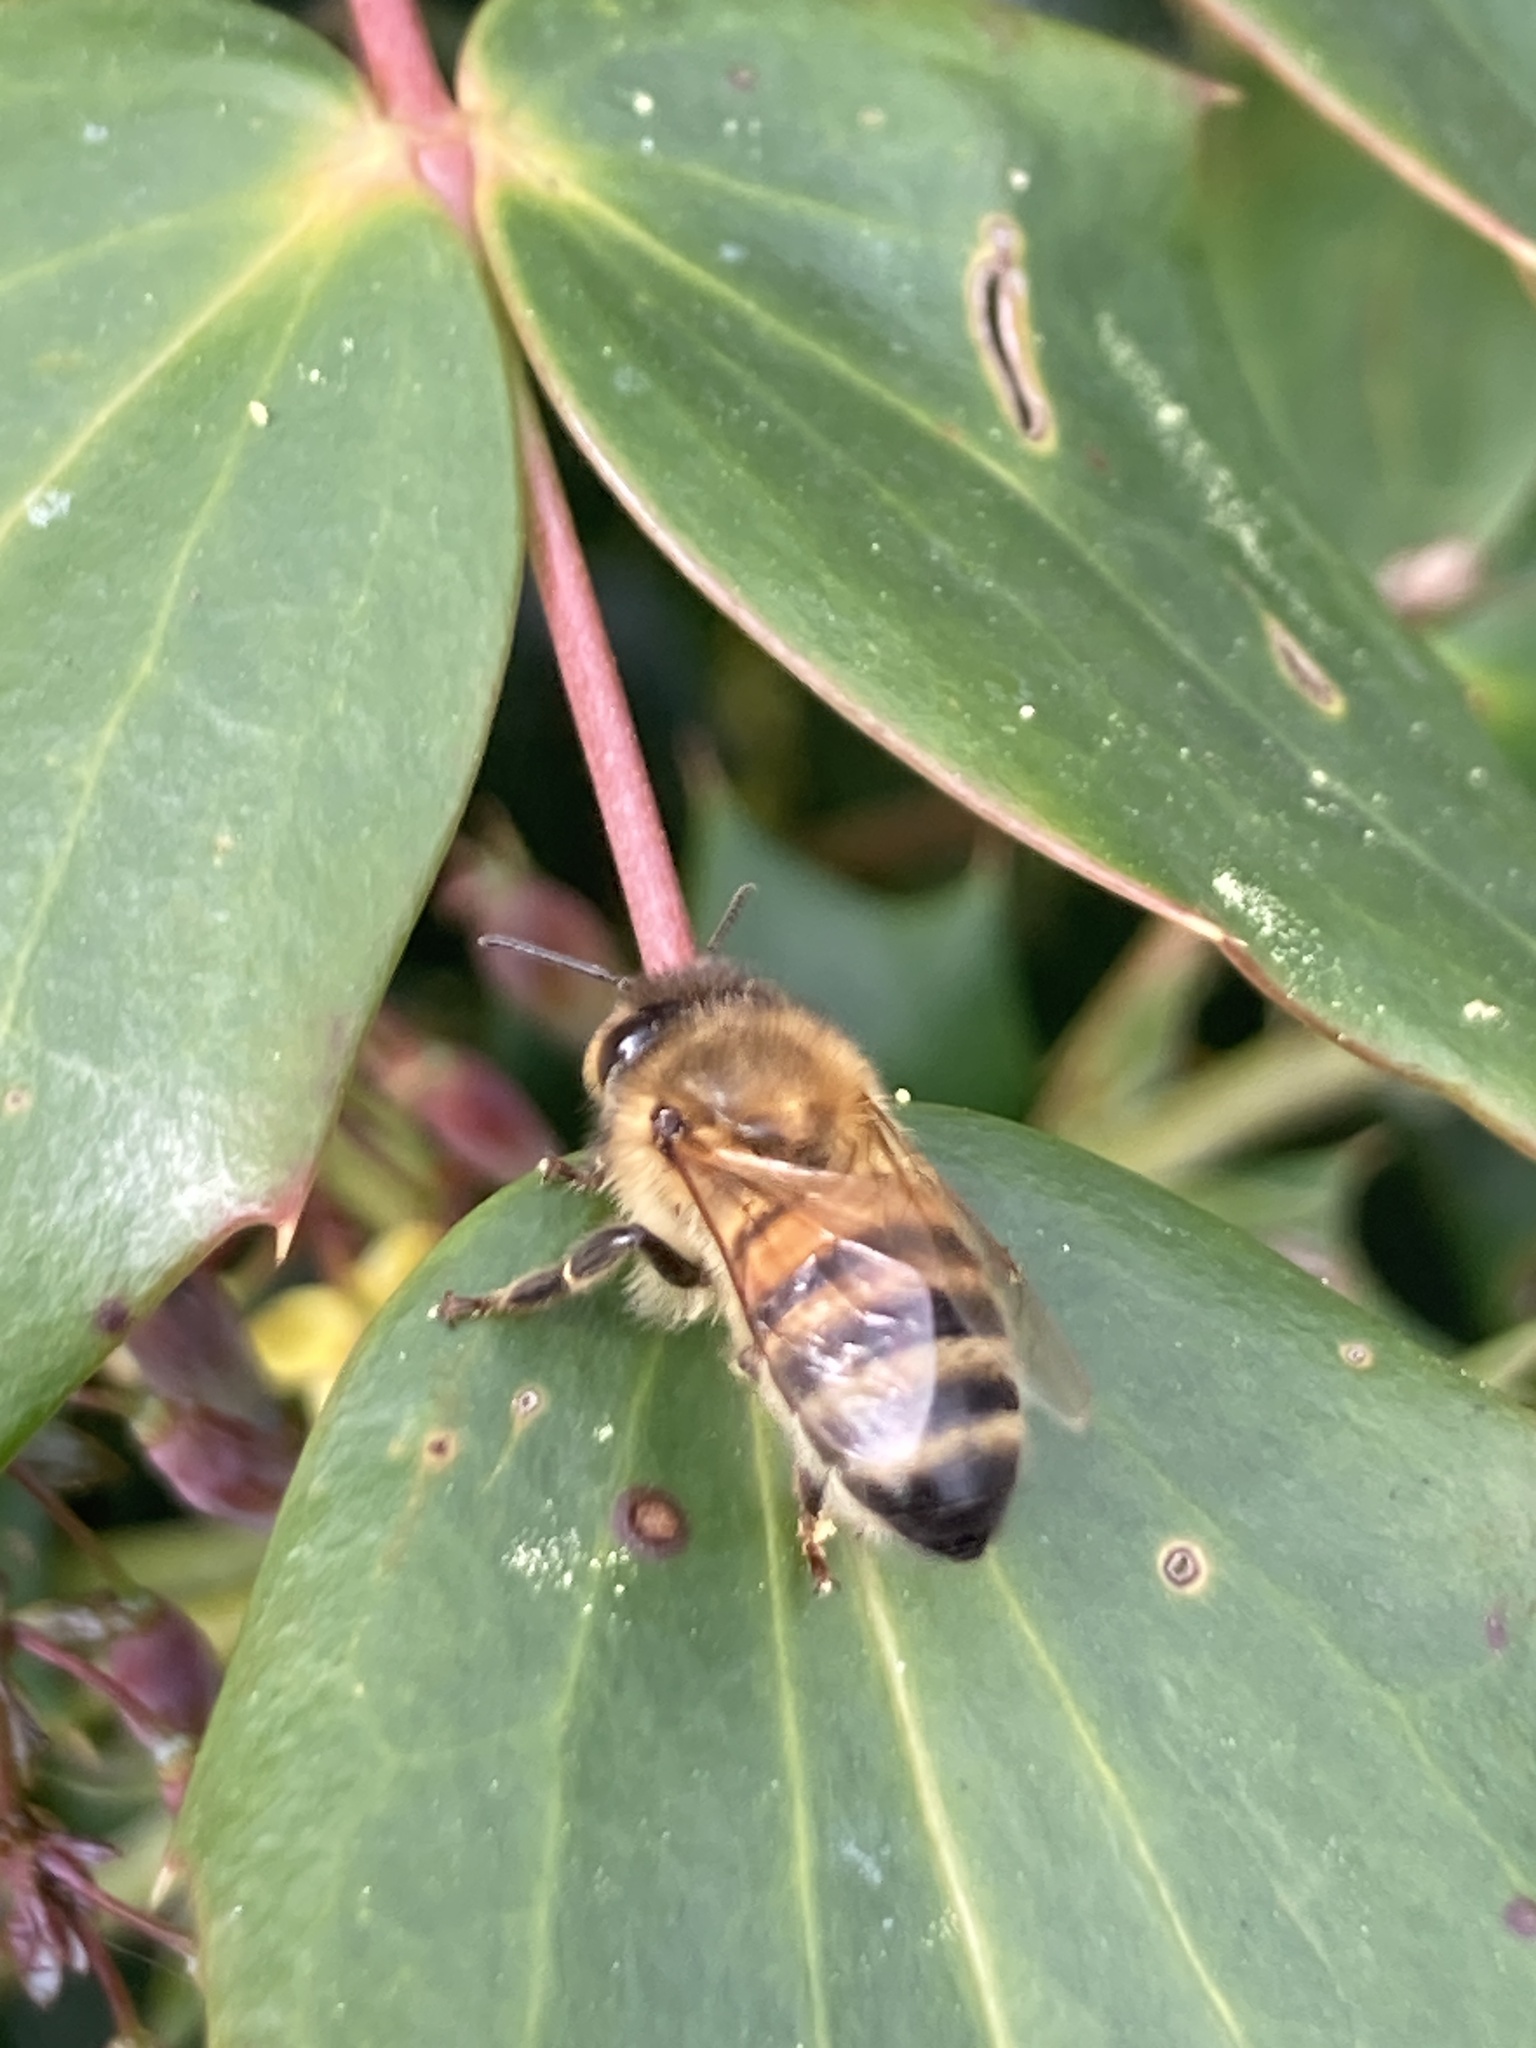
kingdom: Animalia
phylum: Arthropoda
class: Insecta
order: Hymenoptera
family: Apidae
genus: Apis
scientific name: Apis mellifera
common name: Honey bee
